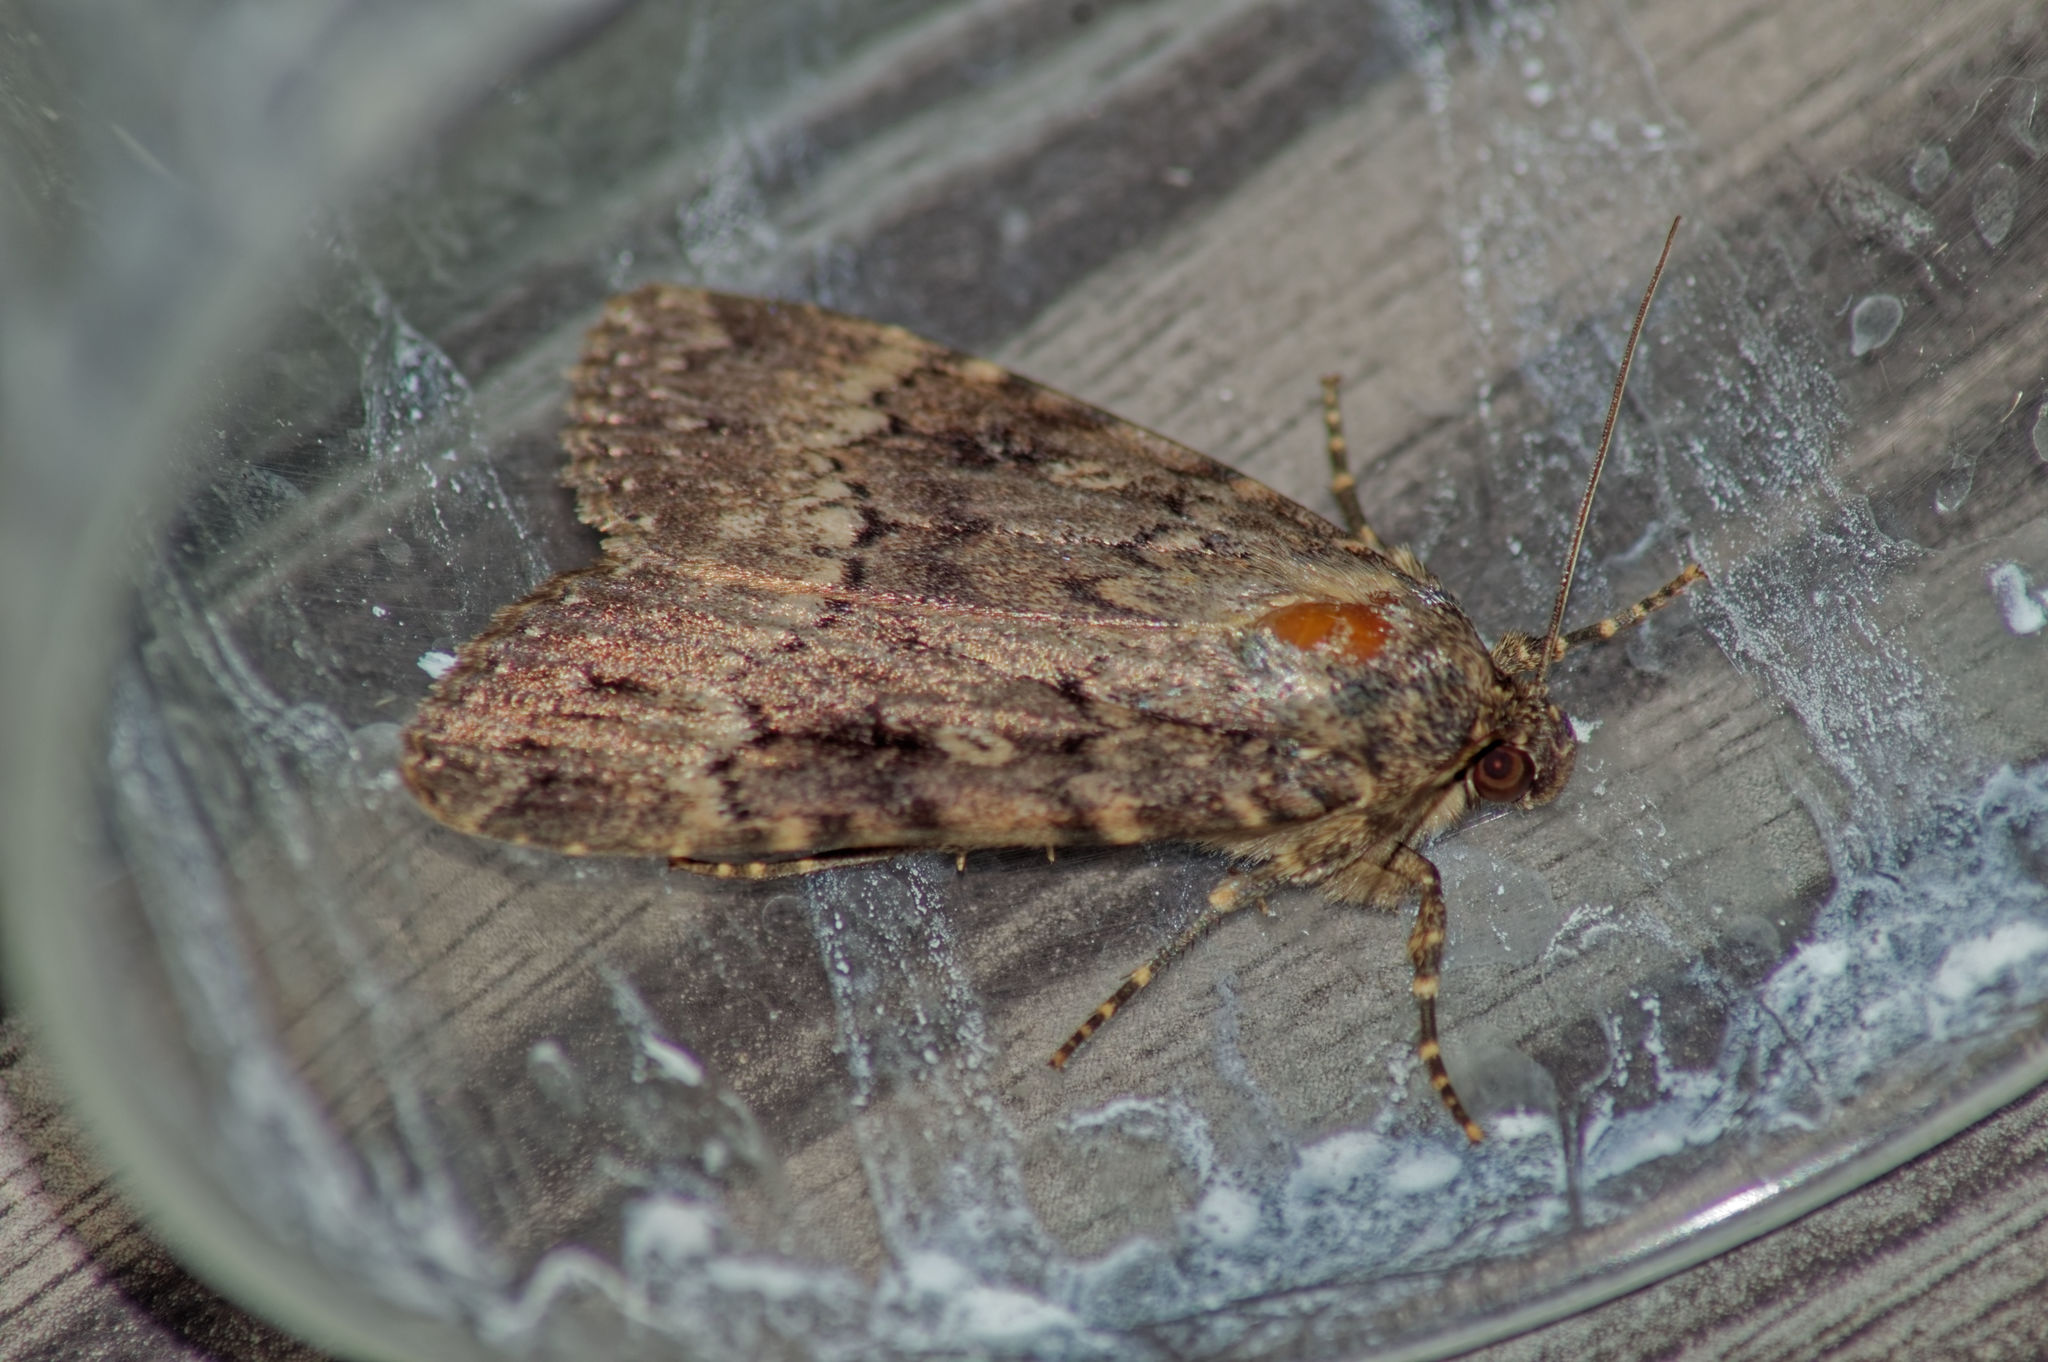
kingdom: Animalia
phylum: Arthropoda
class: Insecta
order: Lepidoptera
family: Noctuidae
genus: Amphipyra
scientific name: Amphipyra berbera
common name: Svensson's copper underwing
